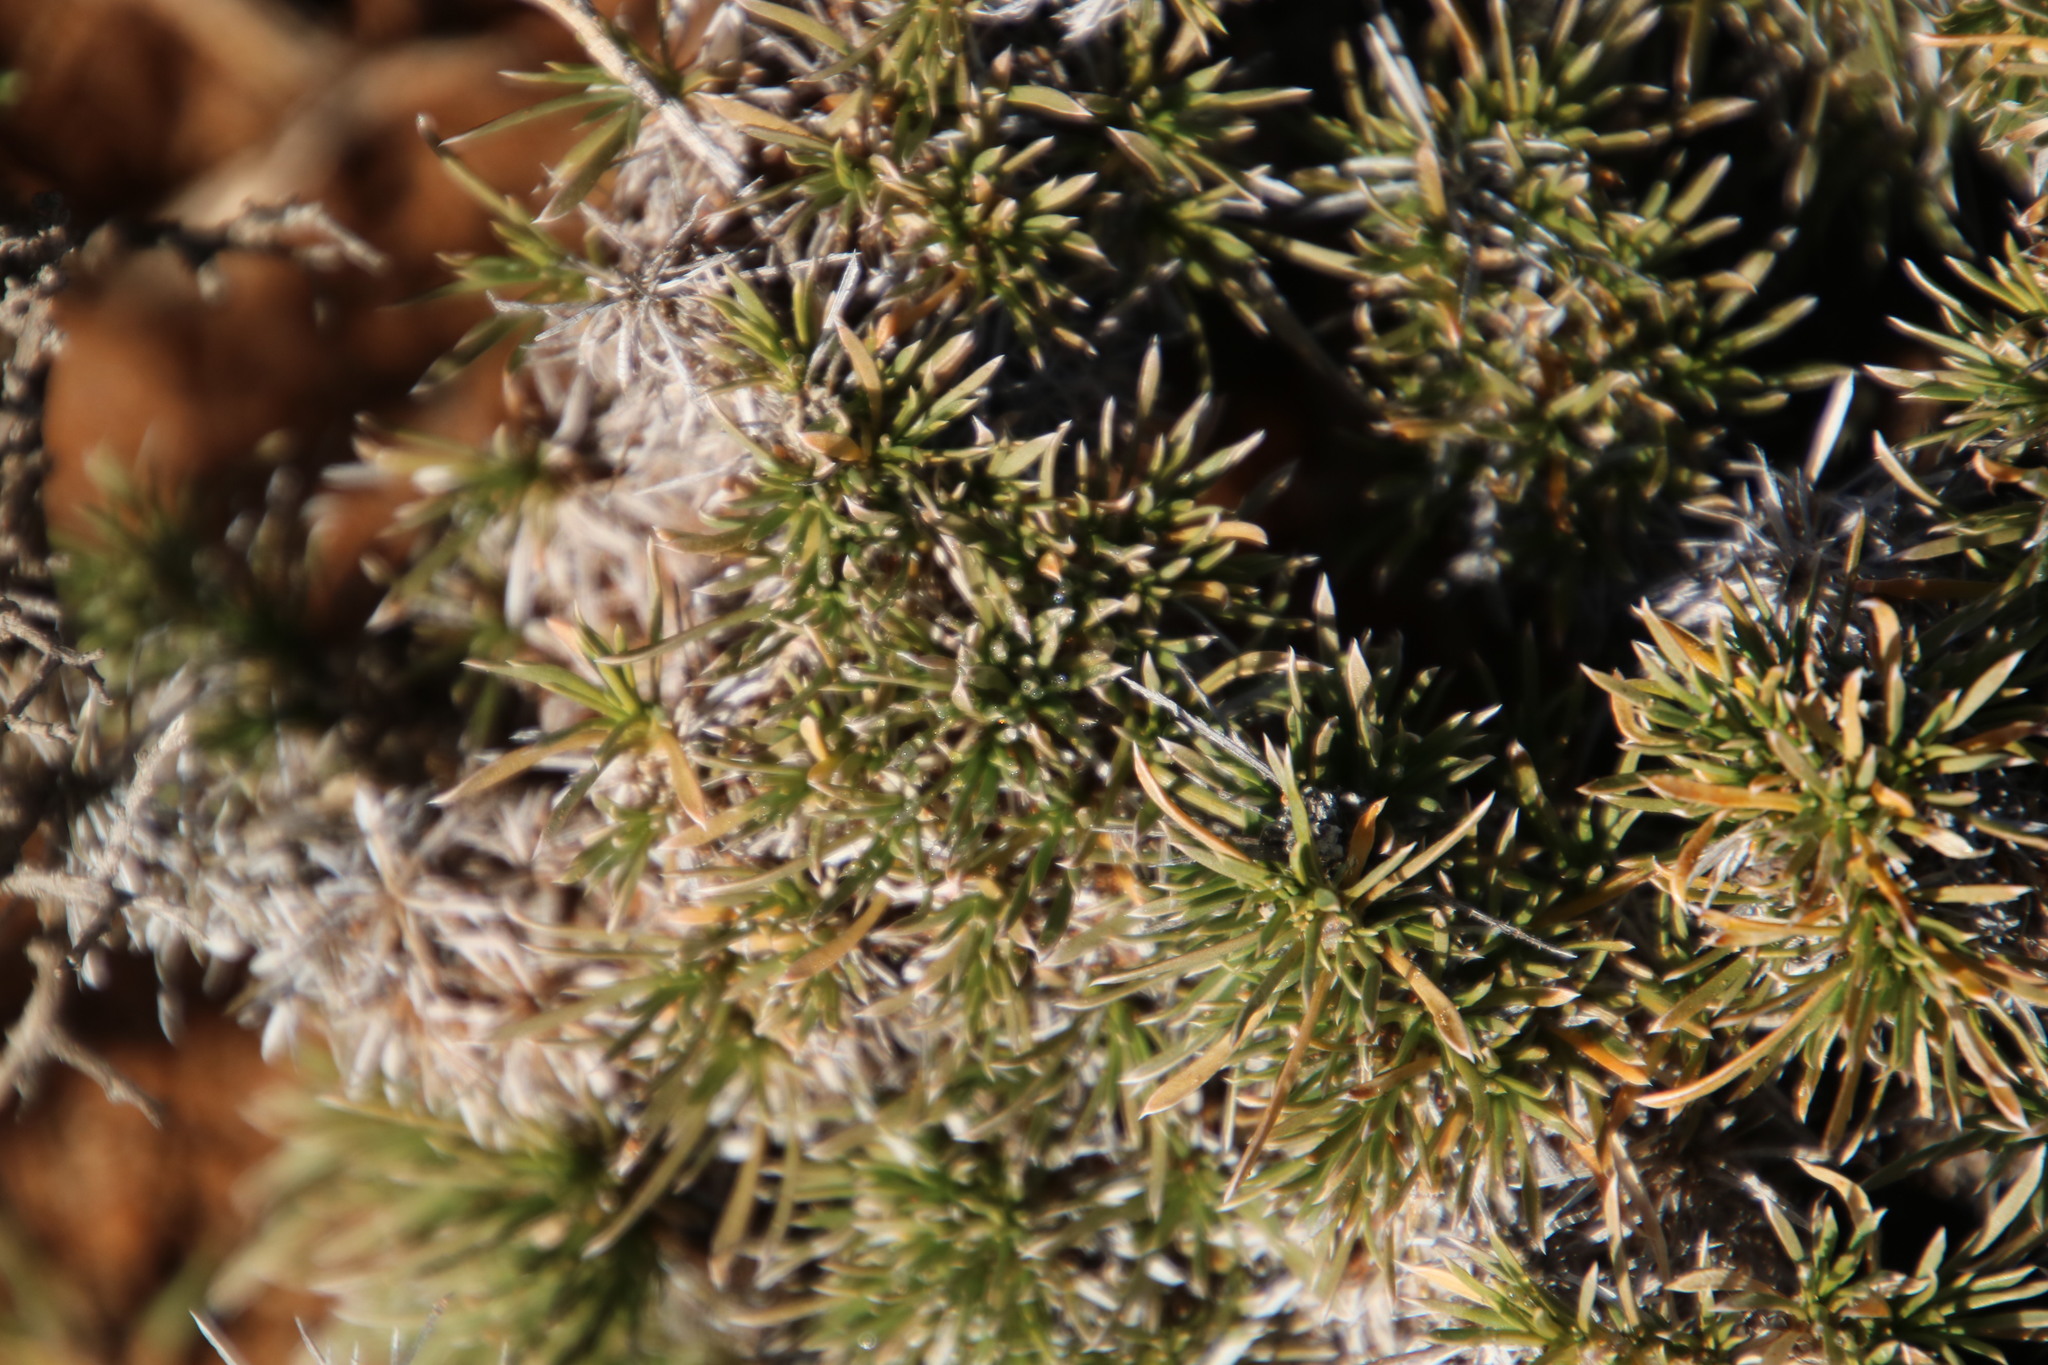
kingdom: Plantae
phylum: Tracheophyta
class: Magnoliopsida
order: Lamiales
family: Scrophulariaceae
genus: Aptosimum
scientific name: Aptosimum spinescens
